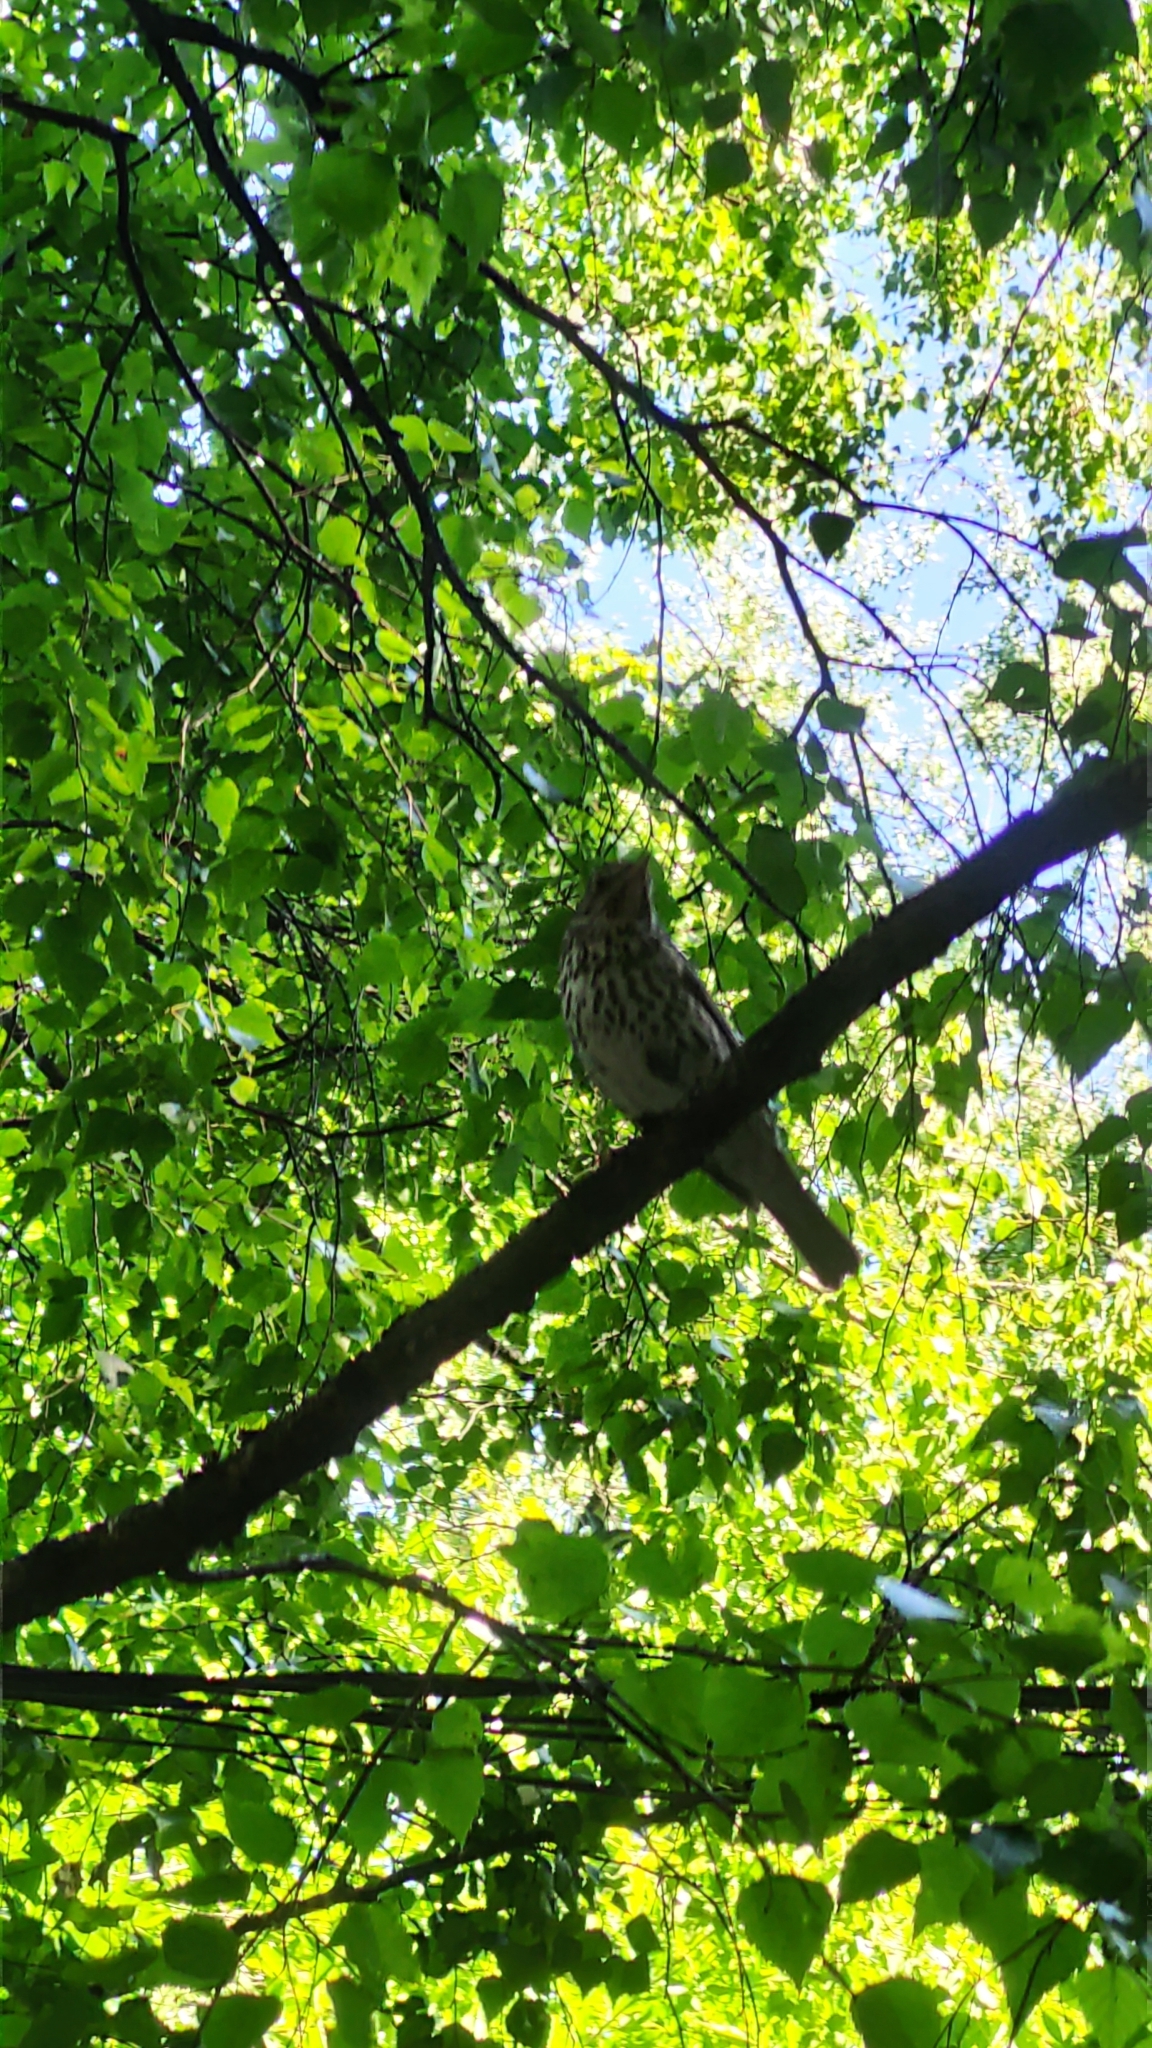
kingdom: Animalia
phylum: Chordata
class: Aves
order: Passeriformes
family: Turdidae
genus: Turdus
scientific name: Turdus pilaris
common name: Fieldfare
